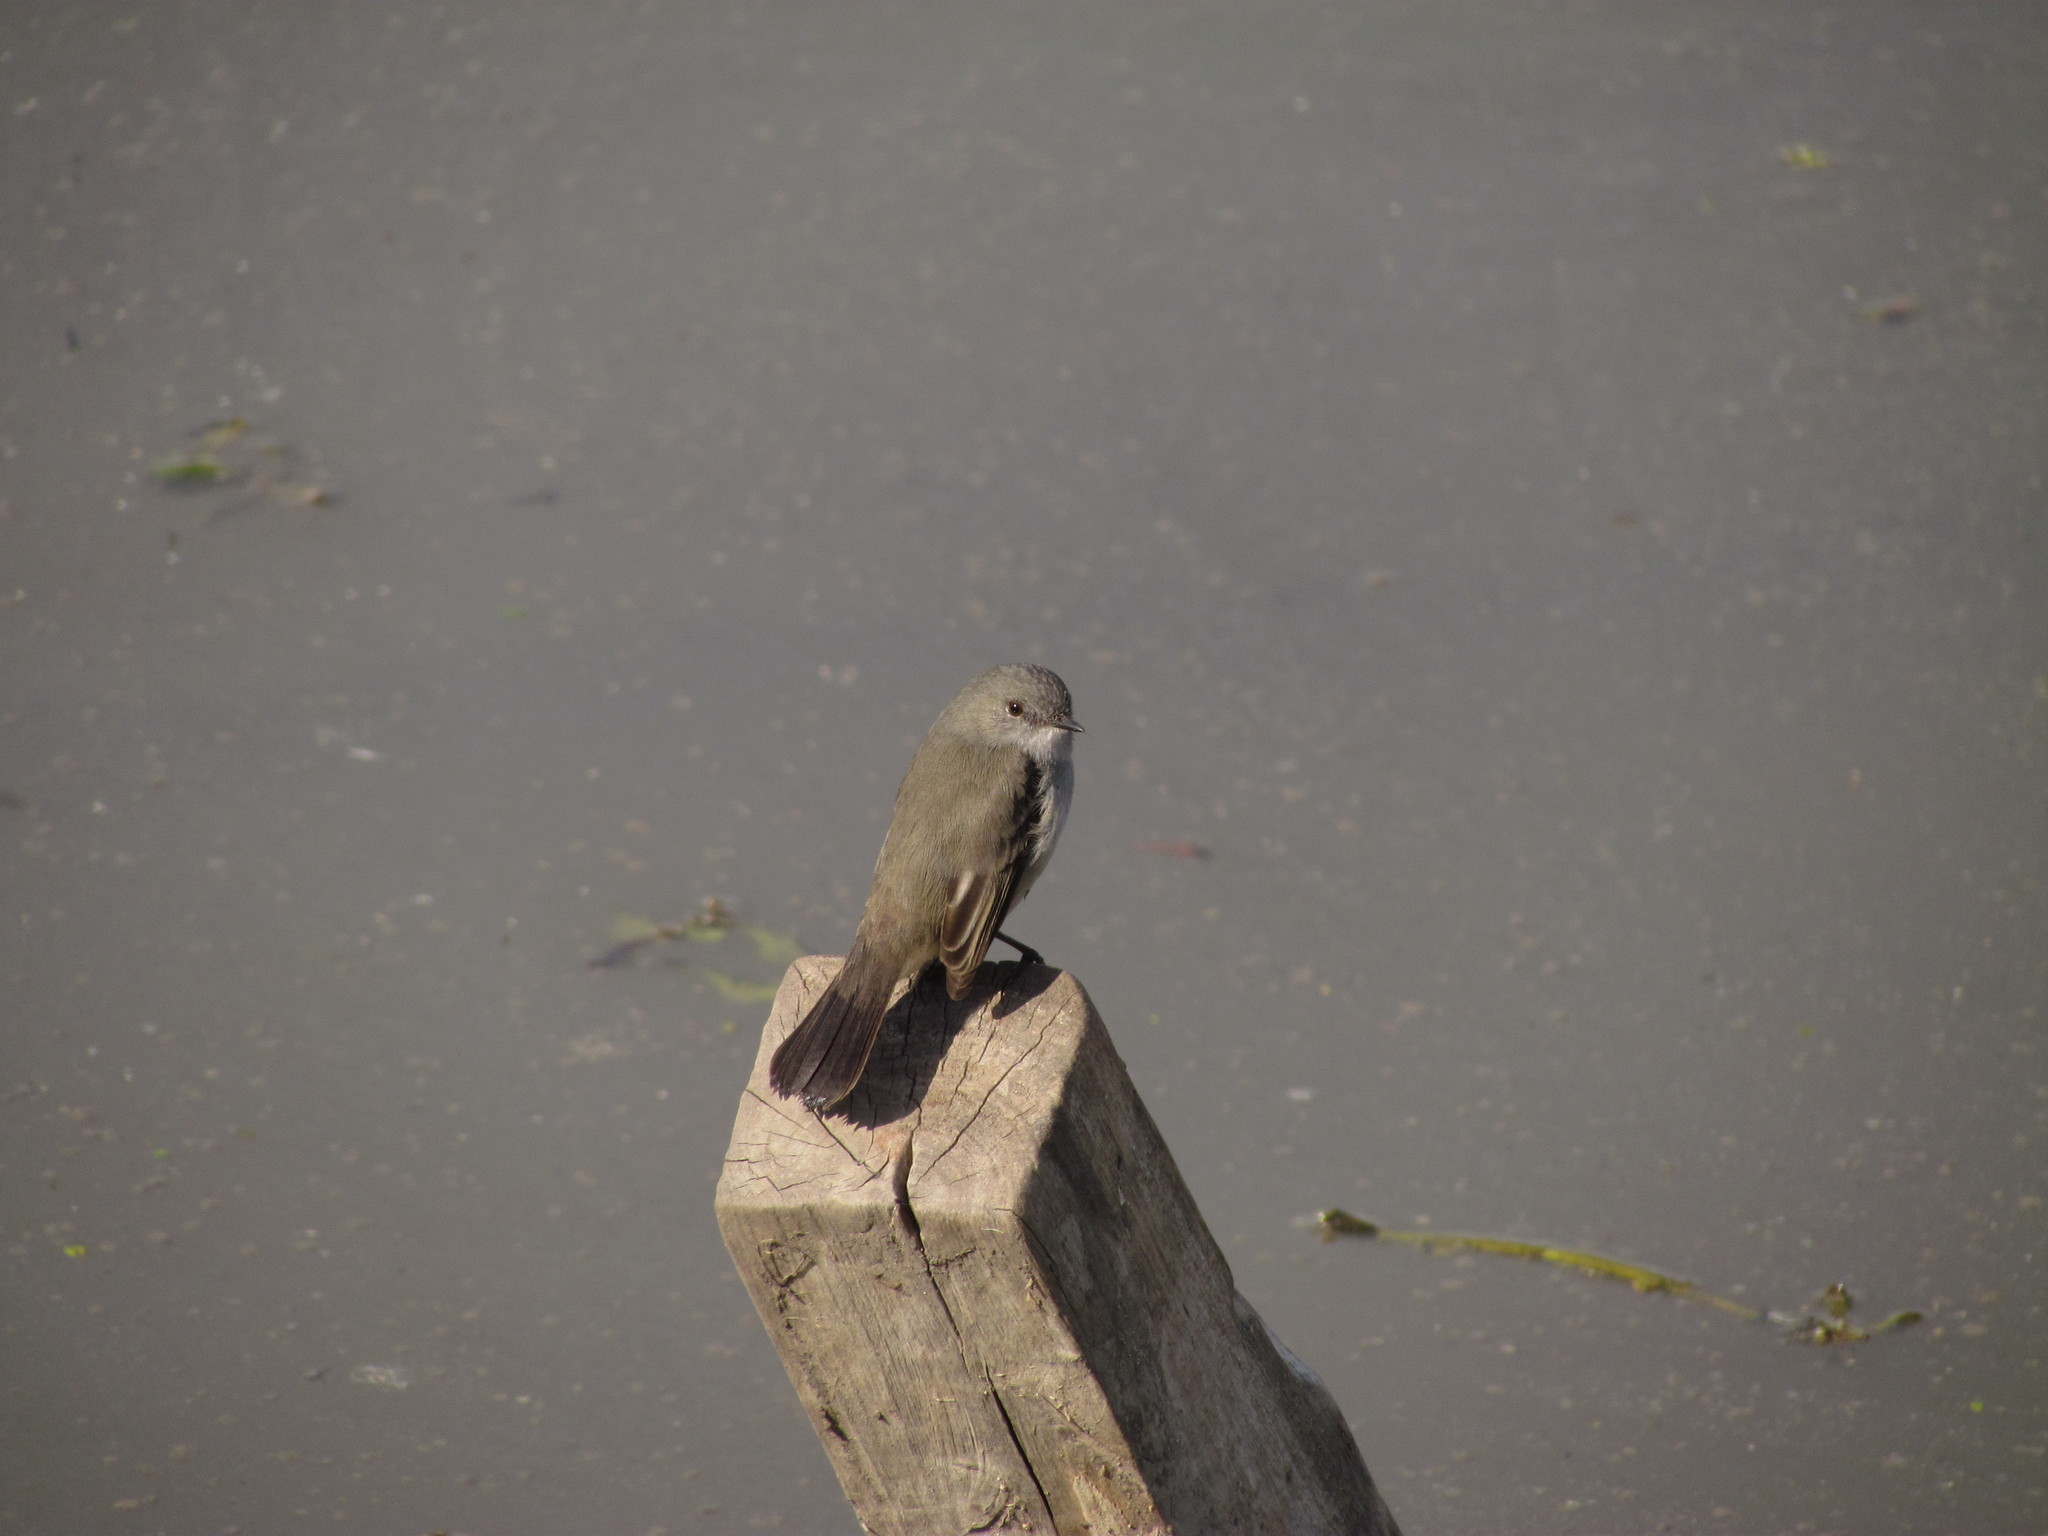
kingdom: Animalia
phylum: Chordata
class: Aves
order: Passeriformes
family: Tyrannidae
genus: Serpophaga
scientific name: Serpophaga nigricans
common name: Sooty tyrannulet
